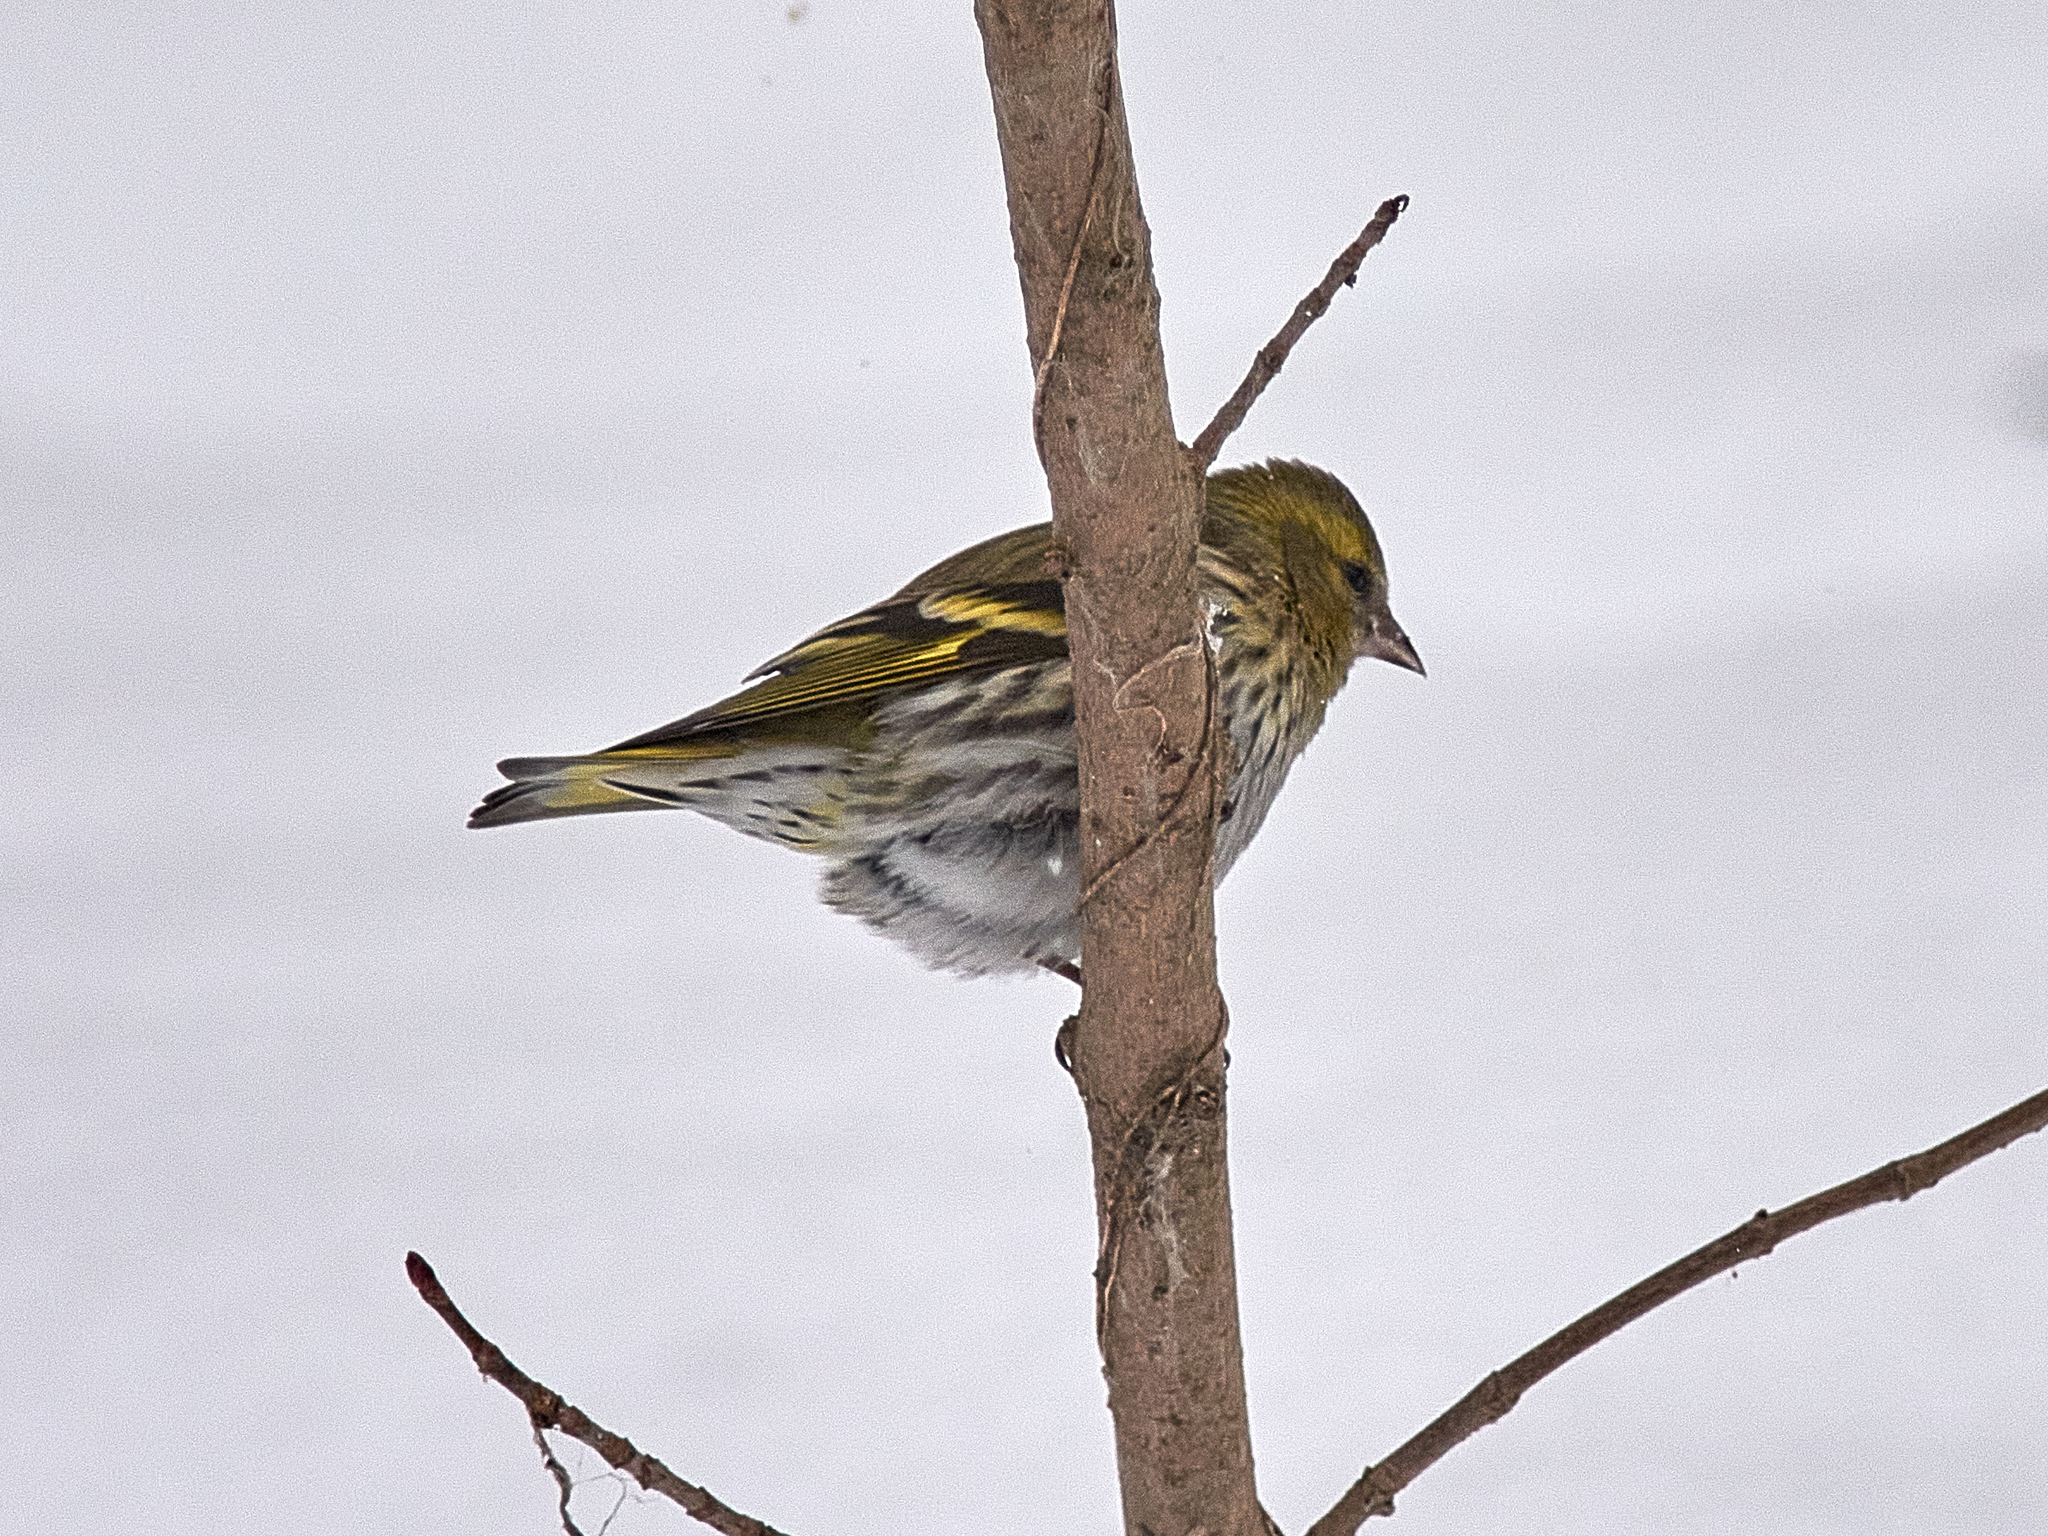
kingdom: Animalia
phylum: Chordata
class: Aves
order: Passeriformes
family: Fringillidae
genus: Spinus
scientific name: Spinus spinus
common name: Eurasian siskin
